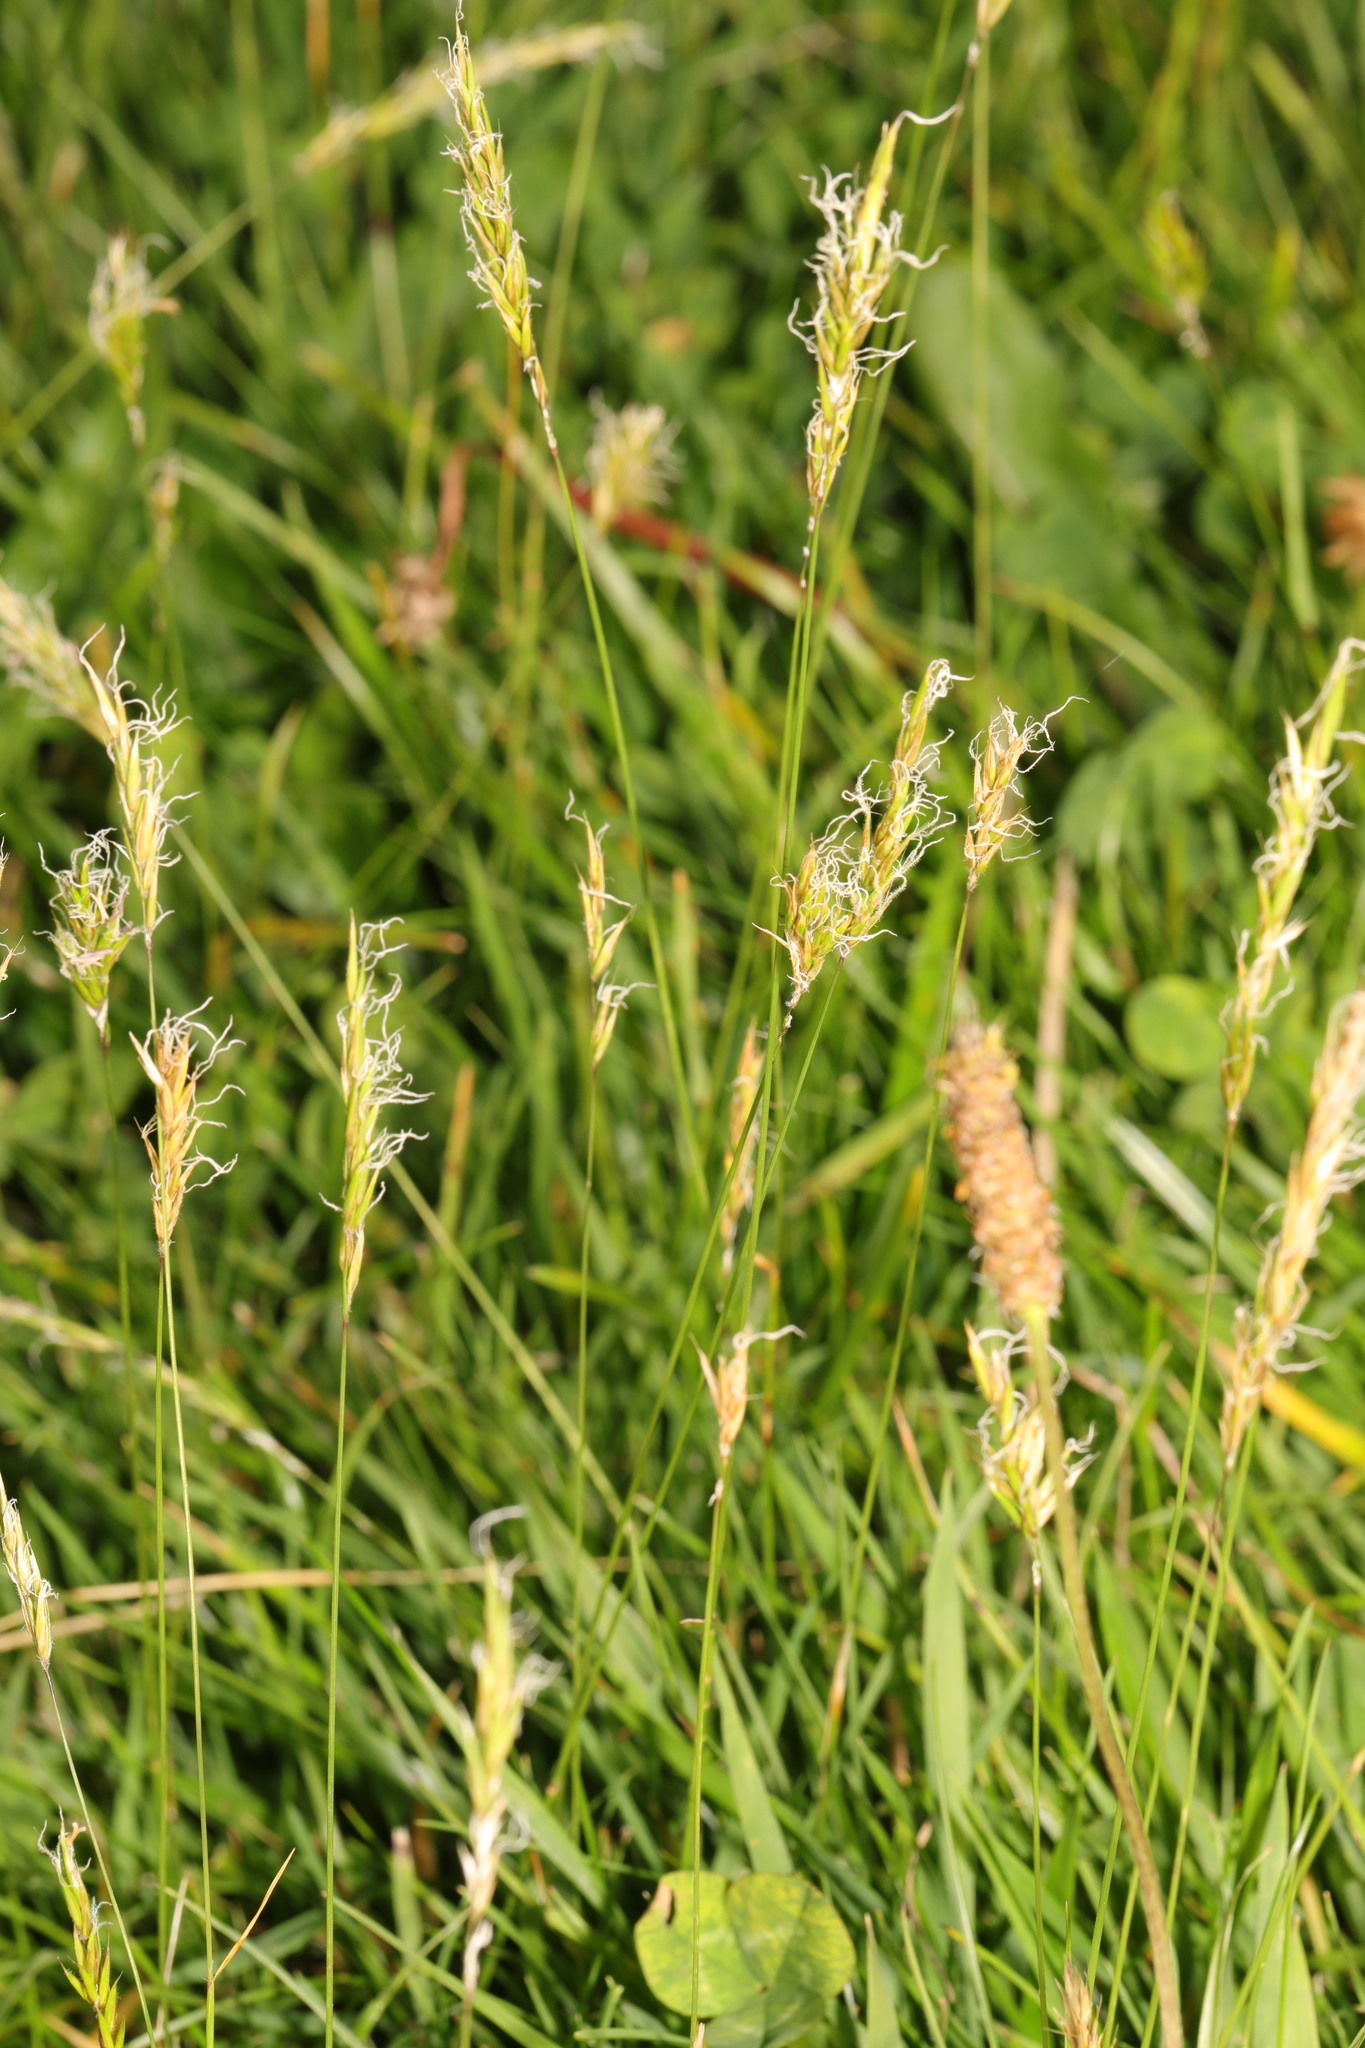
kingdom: Plantae
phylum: Tracheophyta
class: Liliopsida
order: Poales
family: Poaceae
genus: Anthoxanthum
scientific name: Anthoxanthum odoratum
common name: Sweet vernalgrass
